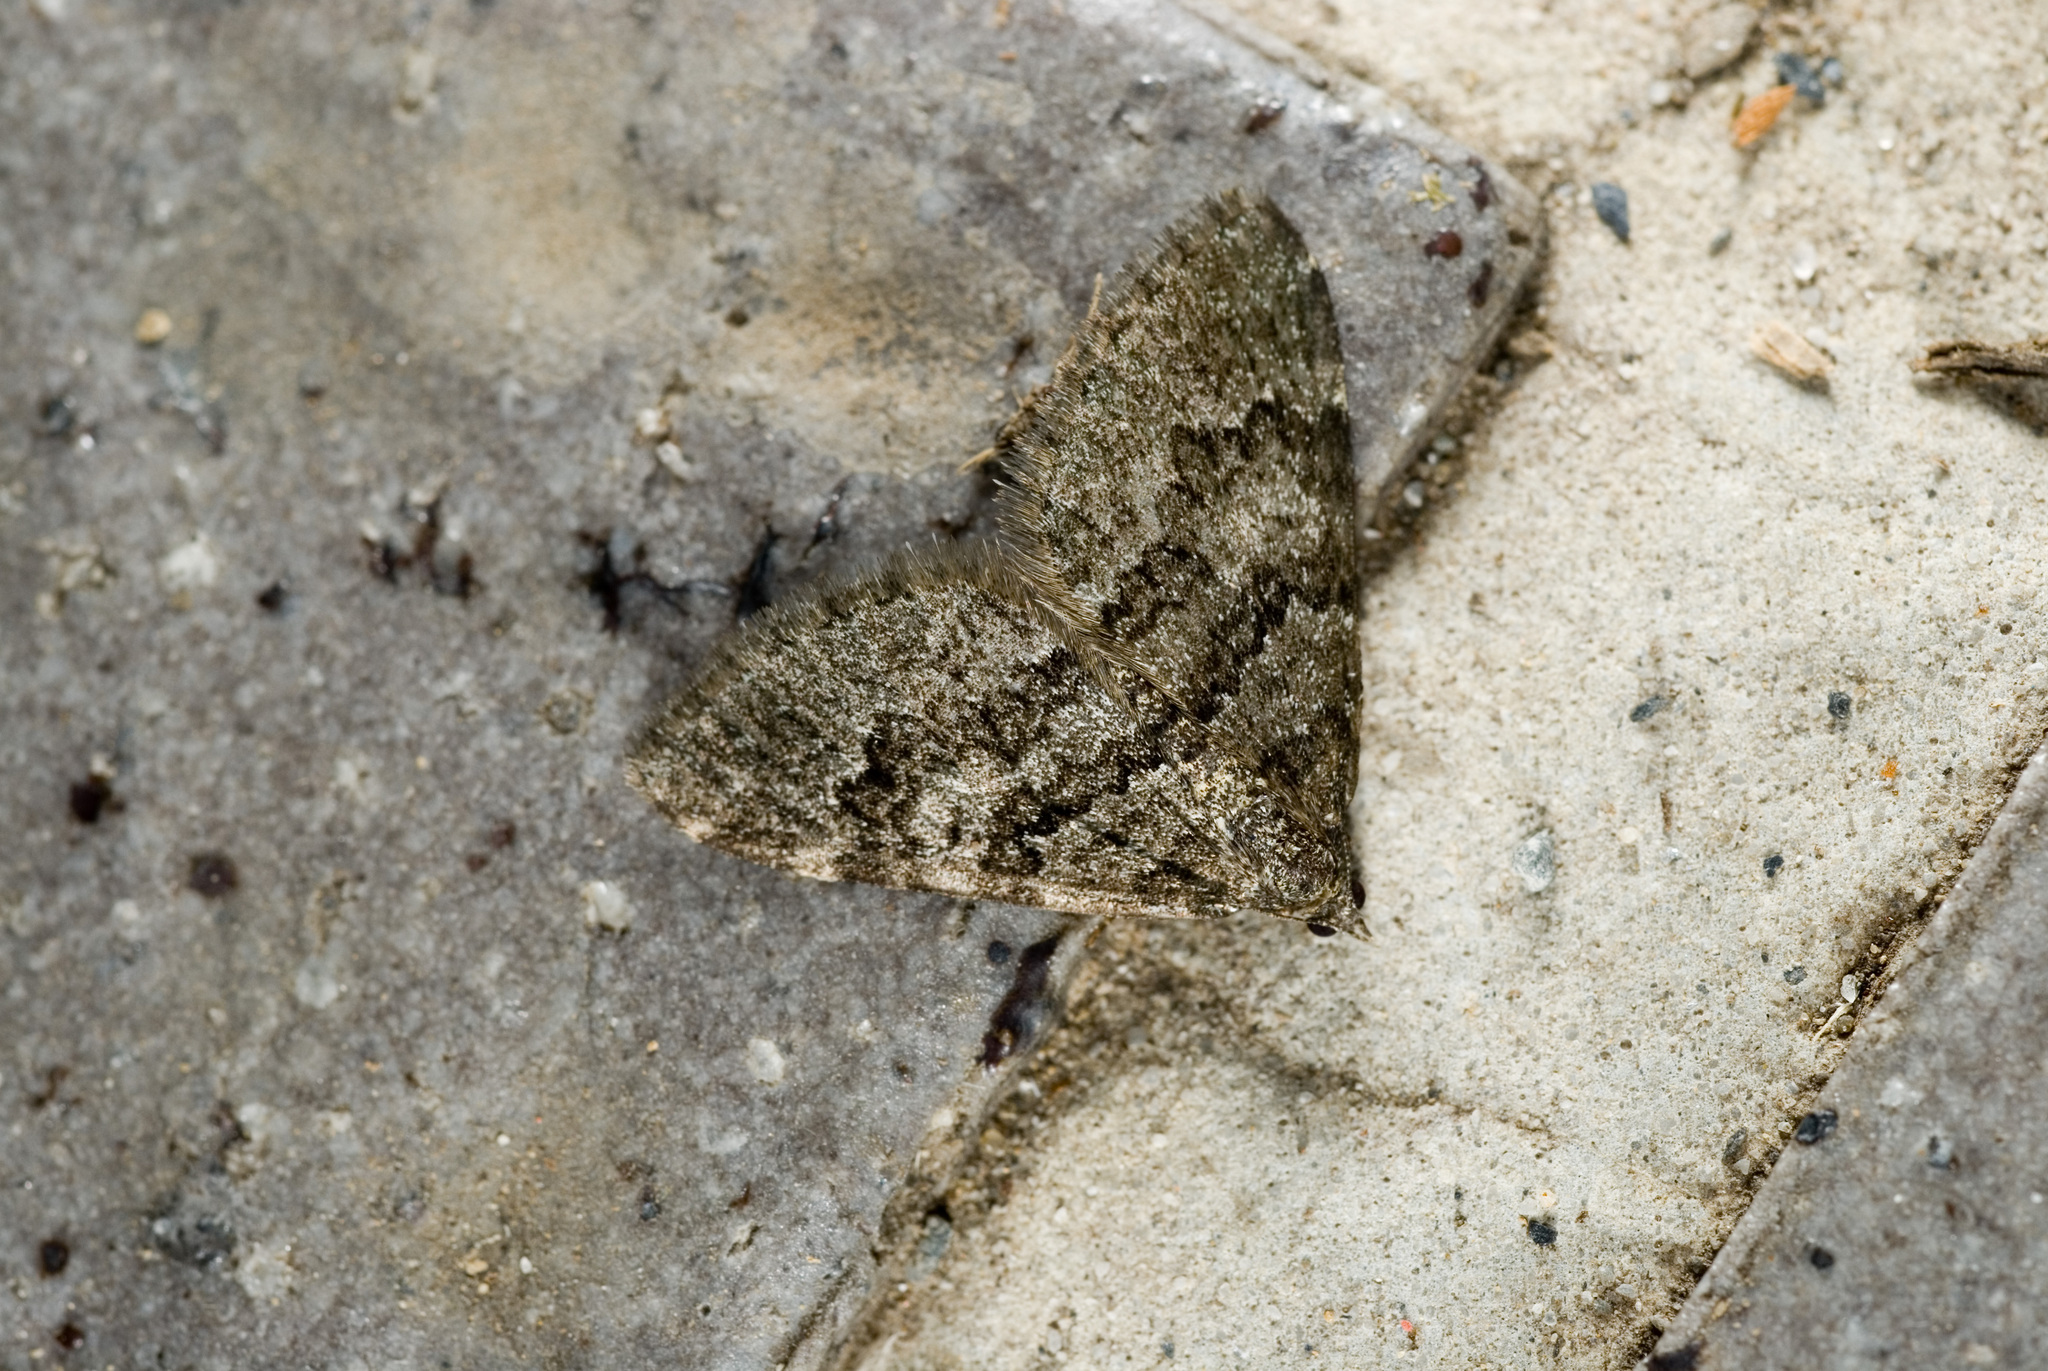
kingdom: Animalia
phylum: Arthropoda
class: Insecta
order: Lepidoptera
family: Geometridae
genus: Piercia
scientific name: Piercia yui
